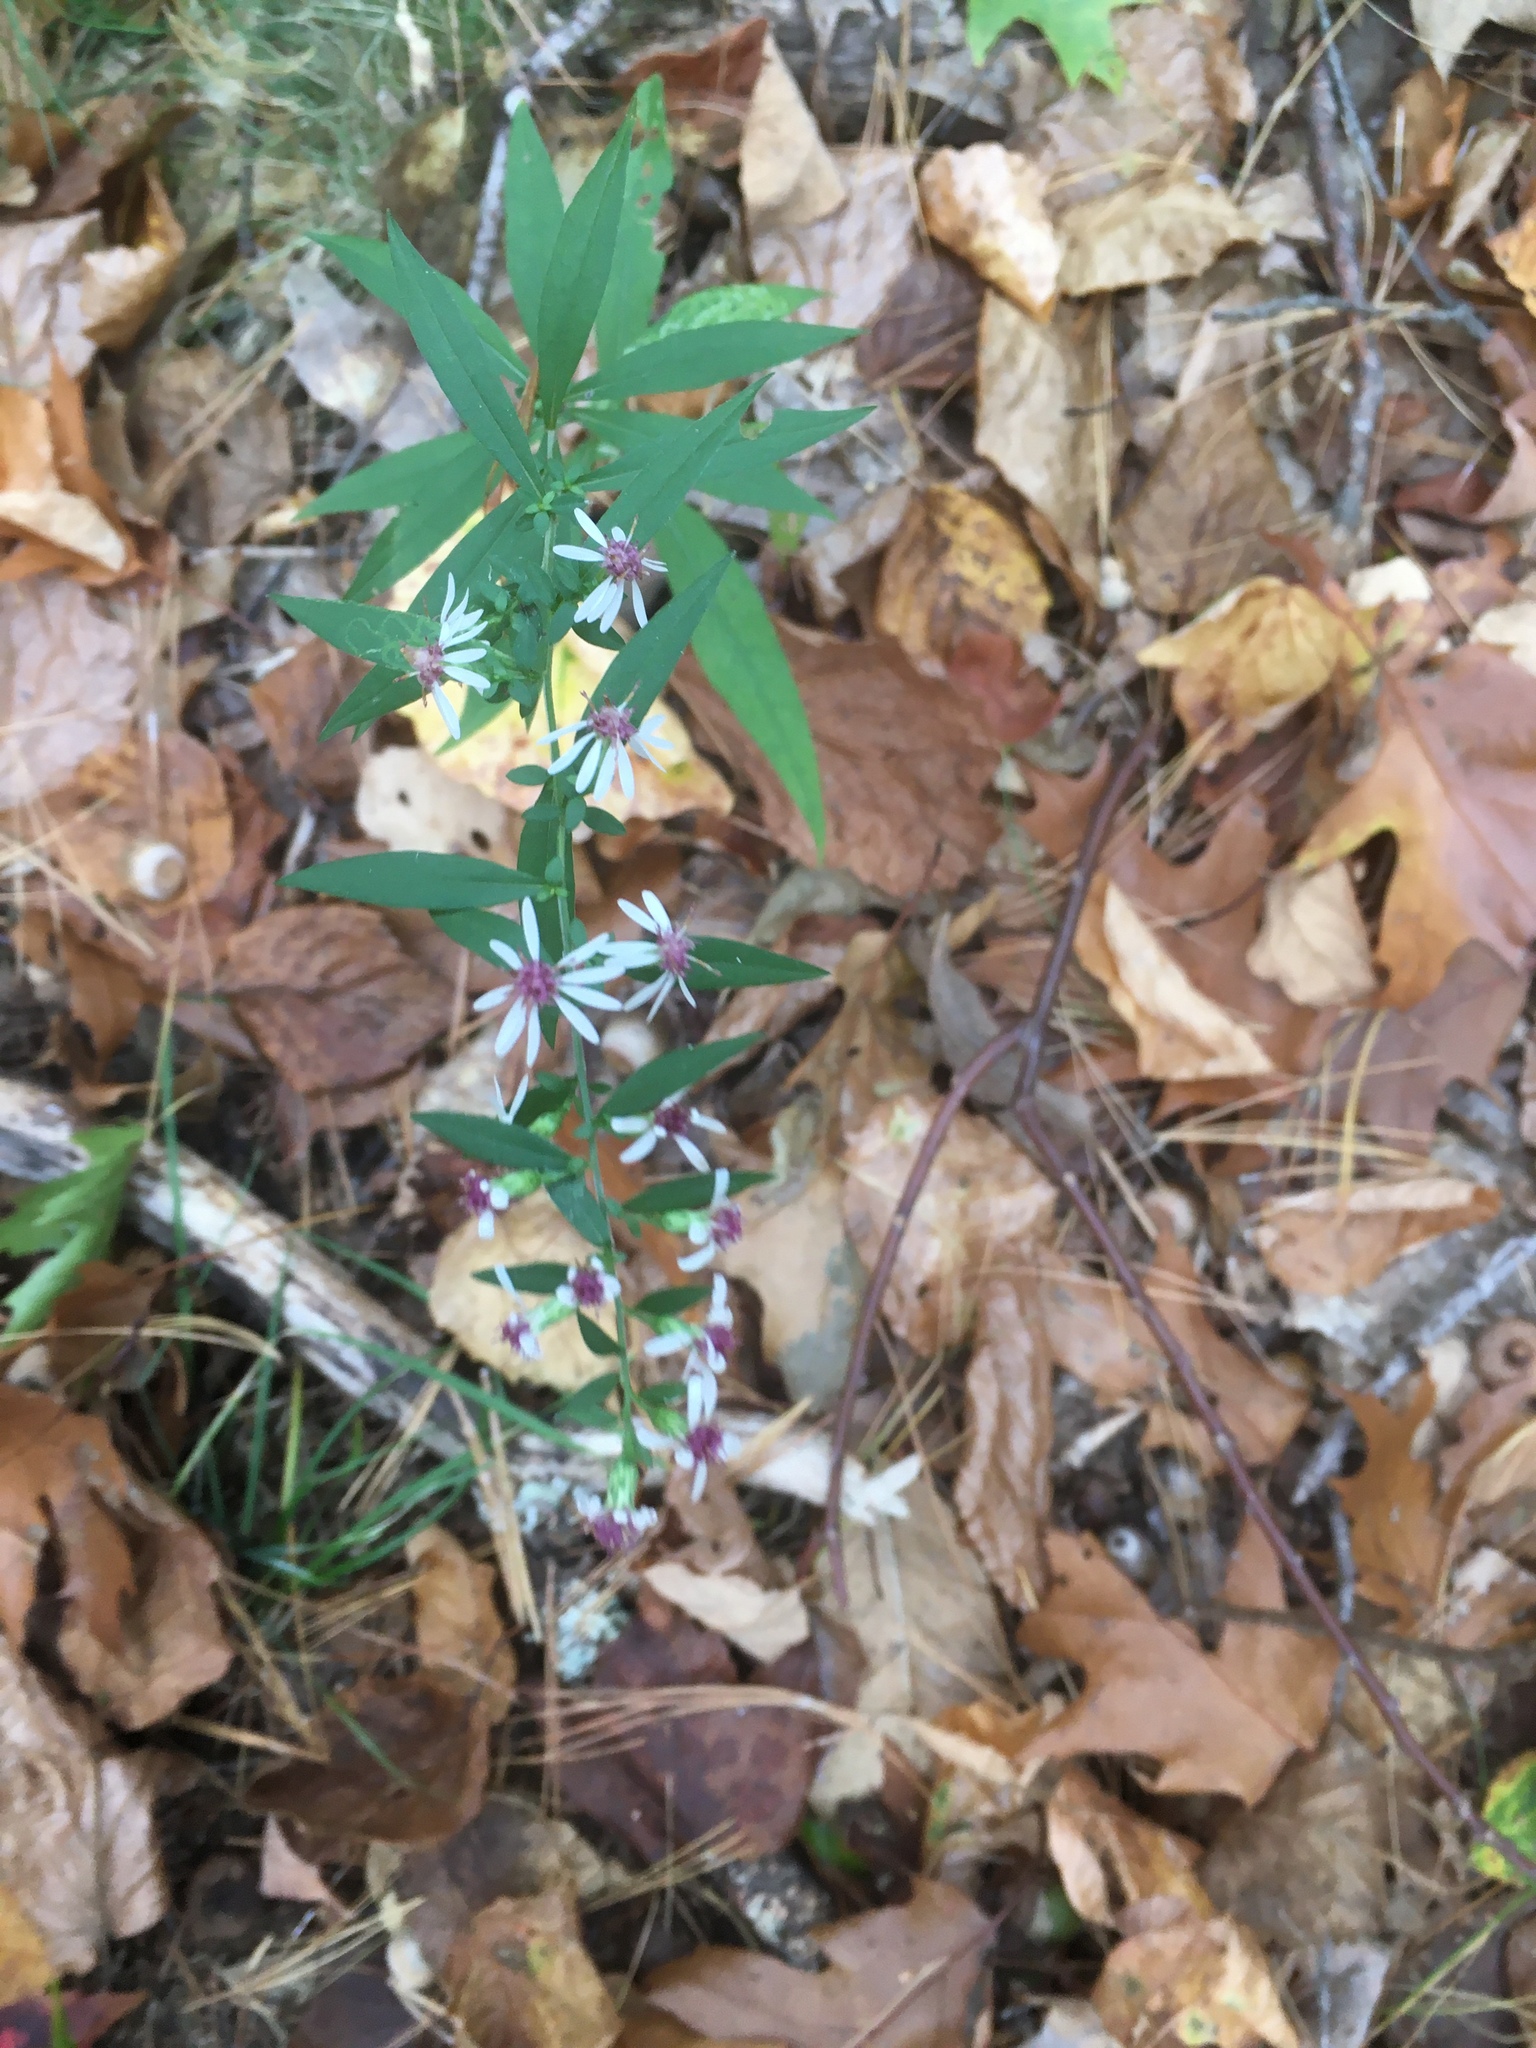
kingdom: Plantae
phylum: Tracheophyta
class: Magnoliopsida
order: Asterales
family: Asteraceae
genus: Symphyotrichum
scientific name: Symphyotrichum lateriflorum
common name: Calico aster
